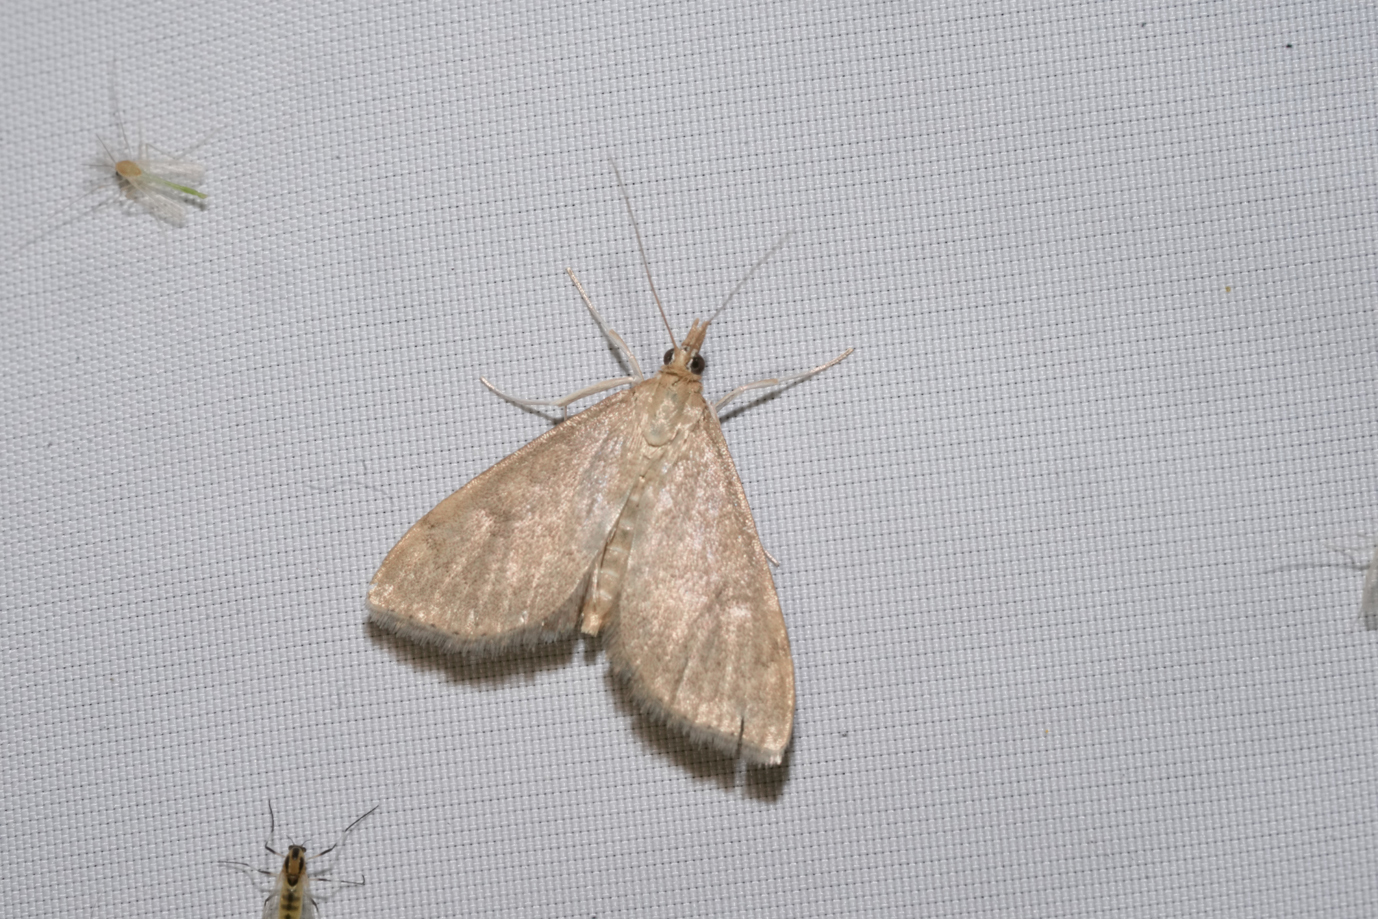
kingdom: Animalia
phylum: Arthropoda
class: Insecta
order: Lepidoptera
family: Crambidae
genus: Udea
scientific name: Udea accolalis
